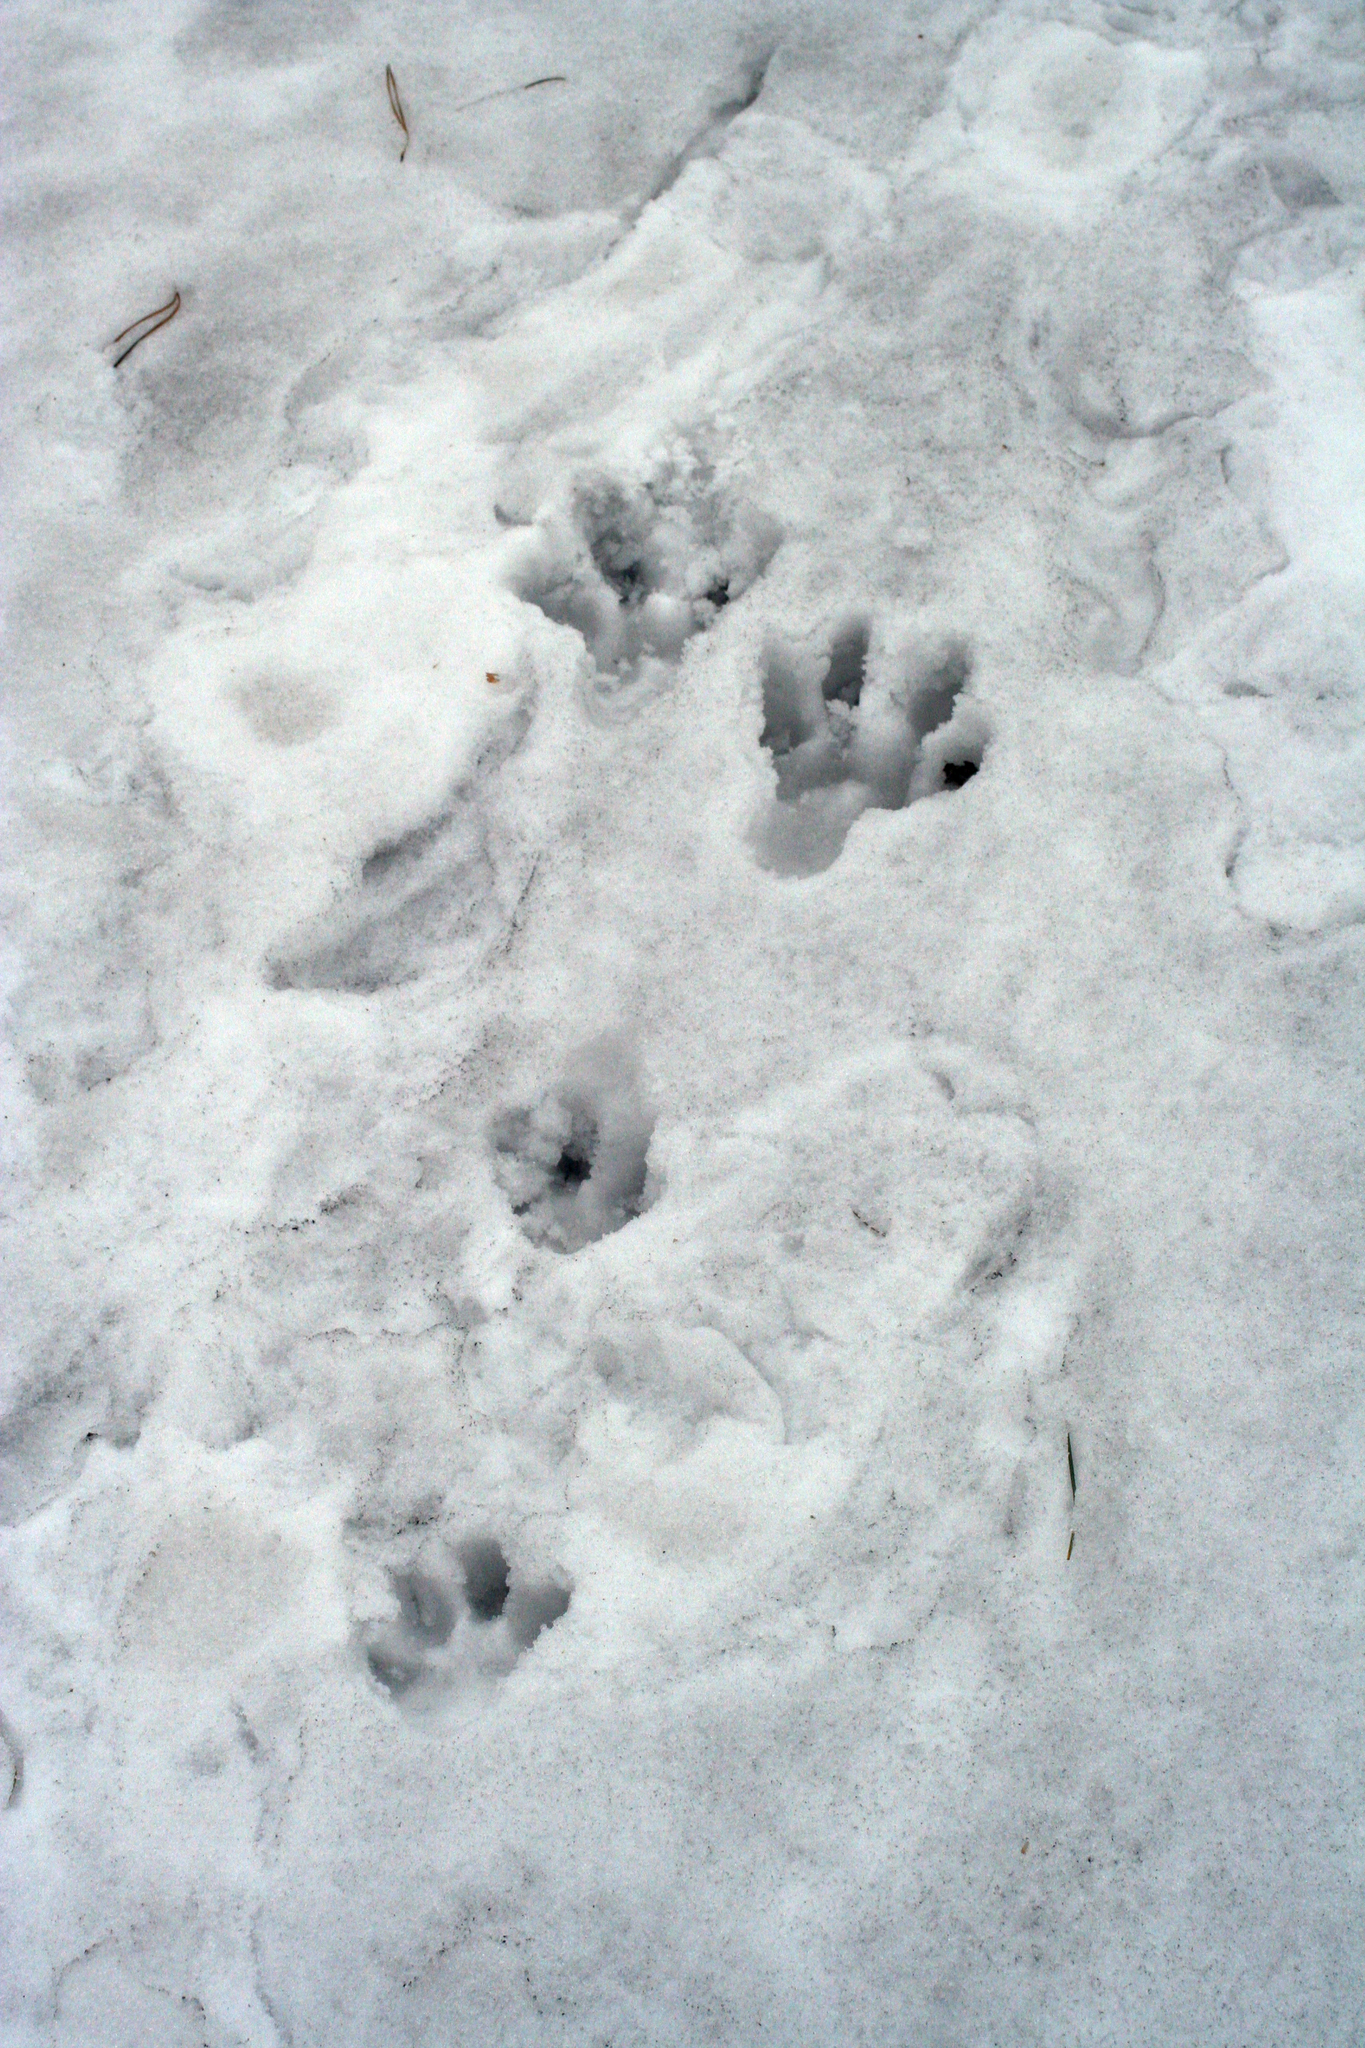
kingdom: Animalia
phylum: Chordata
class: Mammalia
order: Lagomorpha
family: Leporidae
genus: Lepus
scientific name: Lepus timidus
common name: Mountain hare
